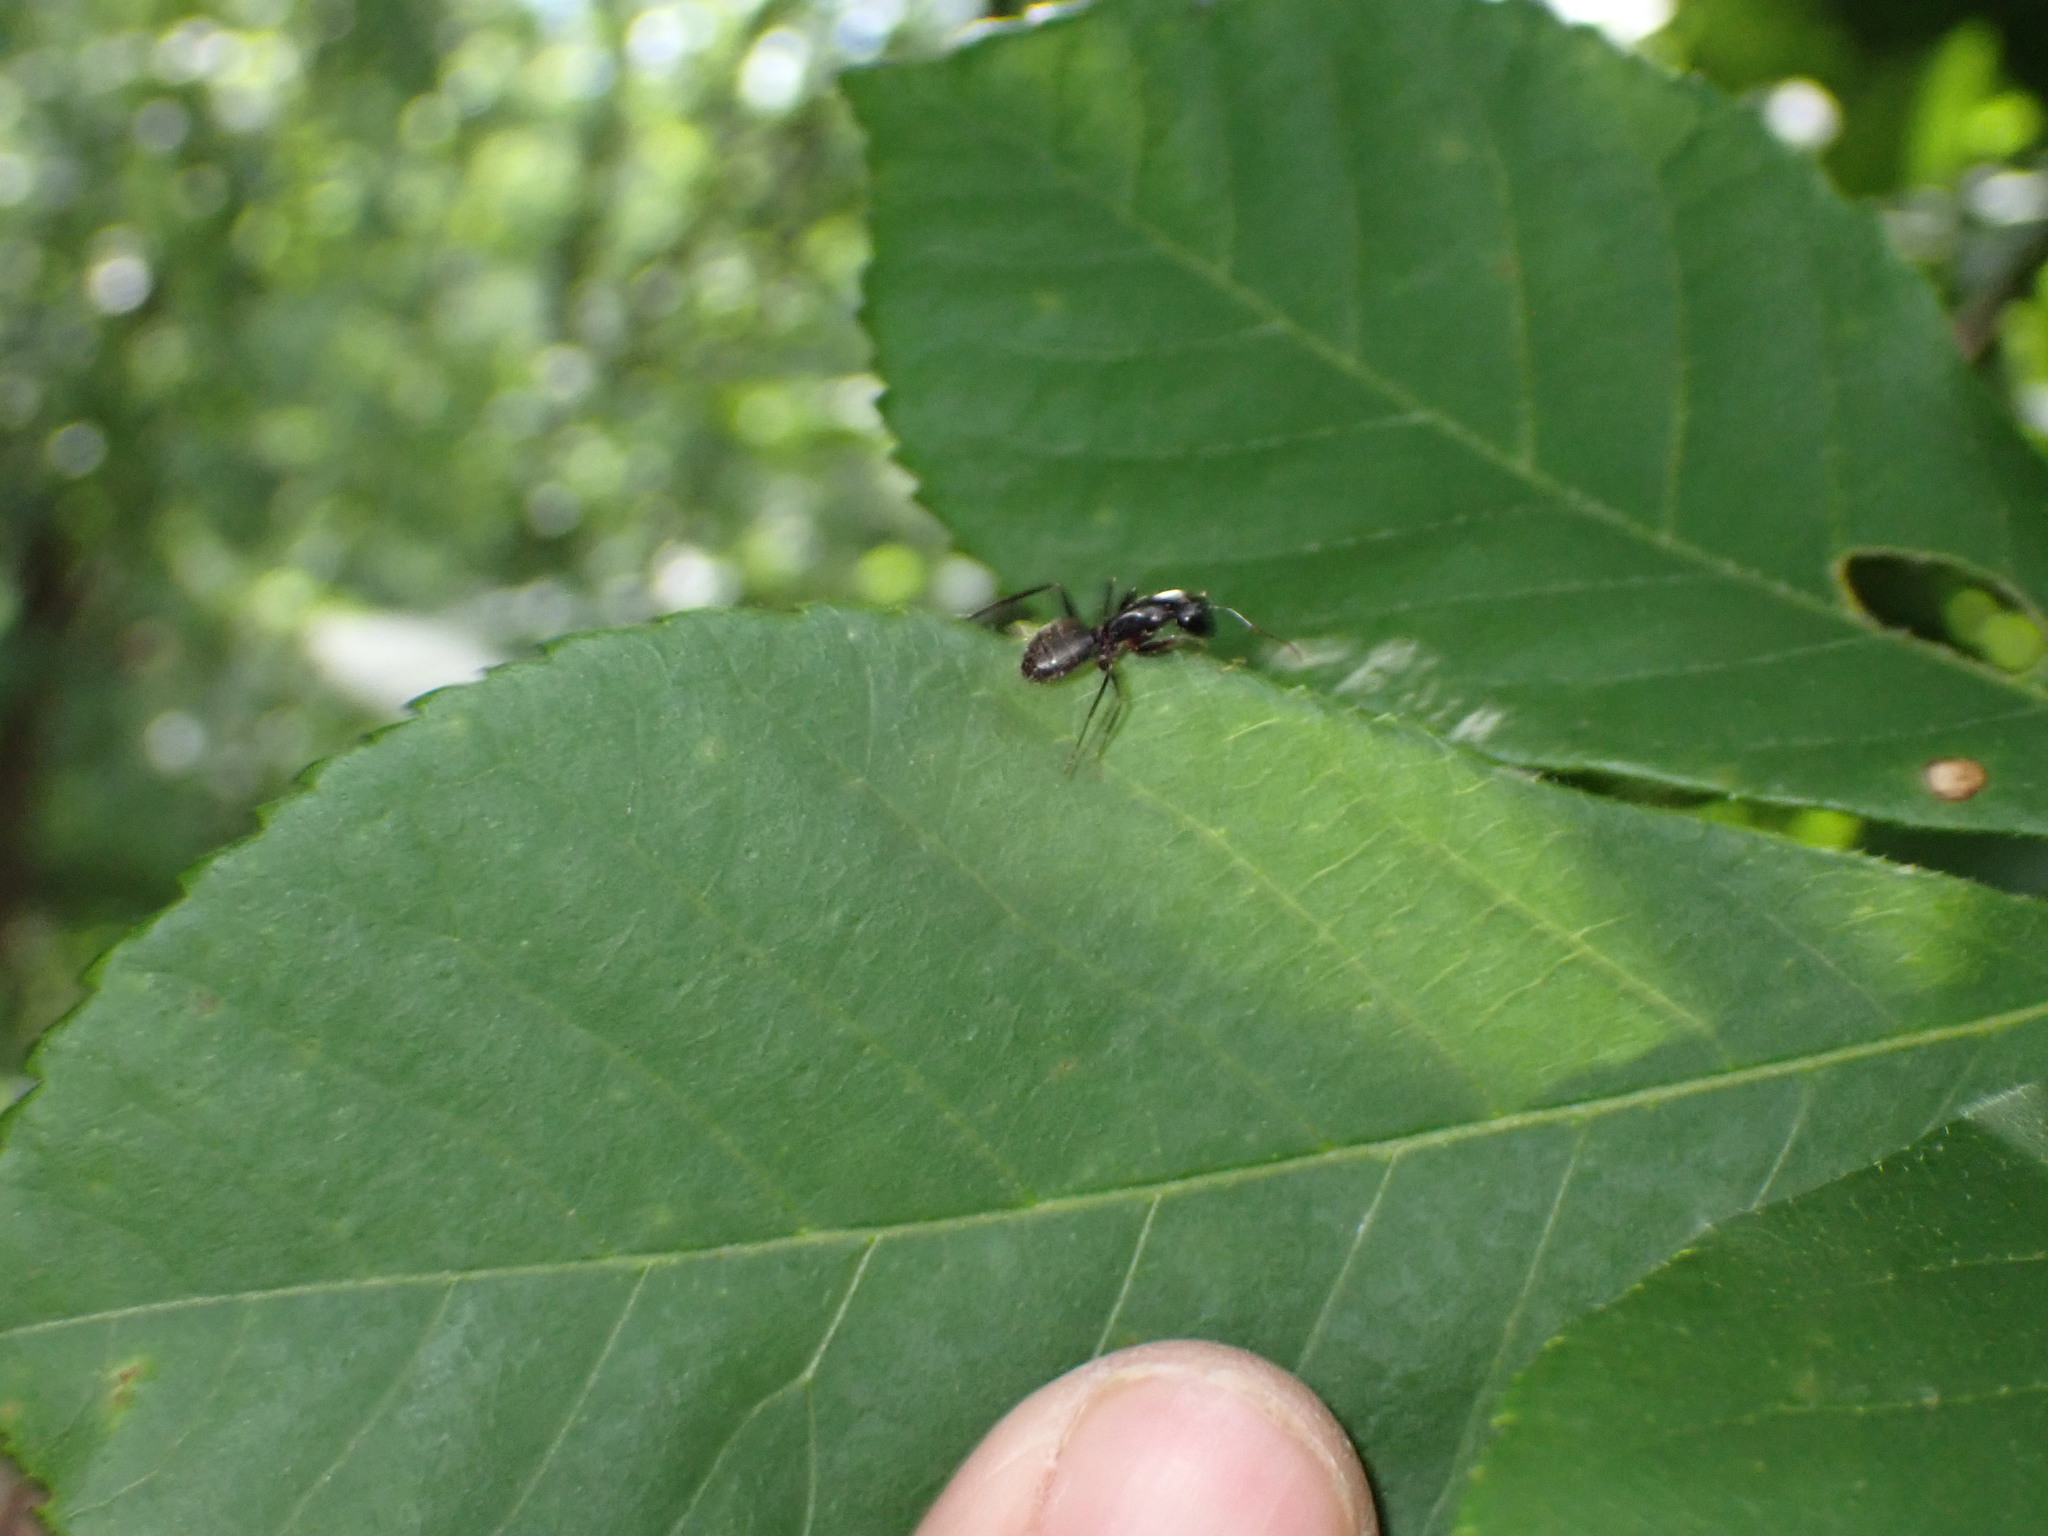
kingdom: Animalia
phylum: Arthropoda
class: Insecta
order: Hymenoptera
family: Formicidae
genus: Camponotus
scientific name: Camponotus pennsylvanicus
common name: Black carpenter ant
